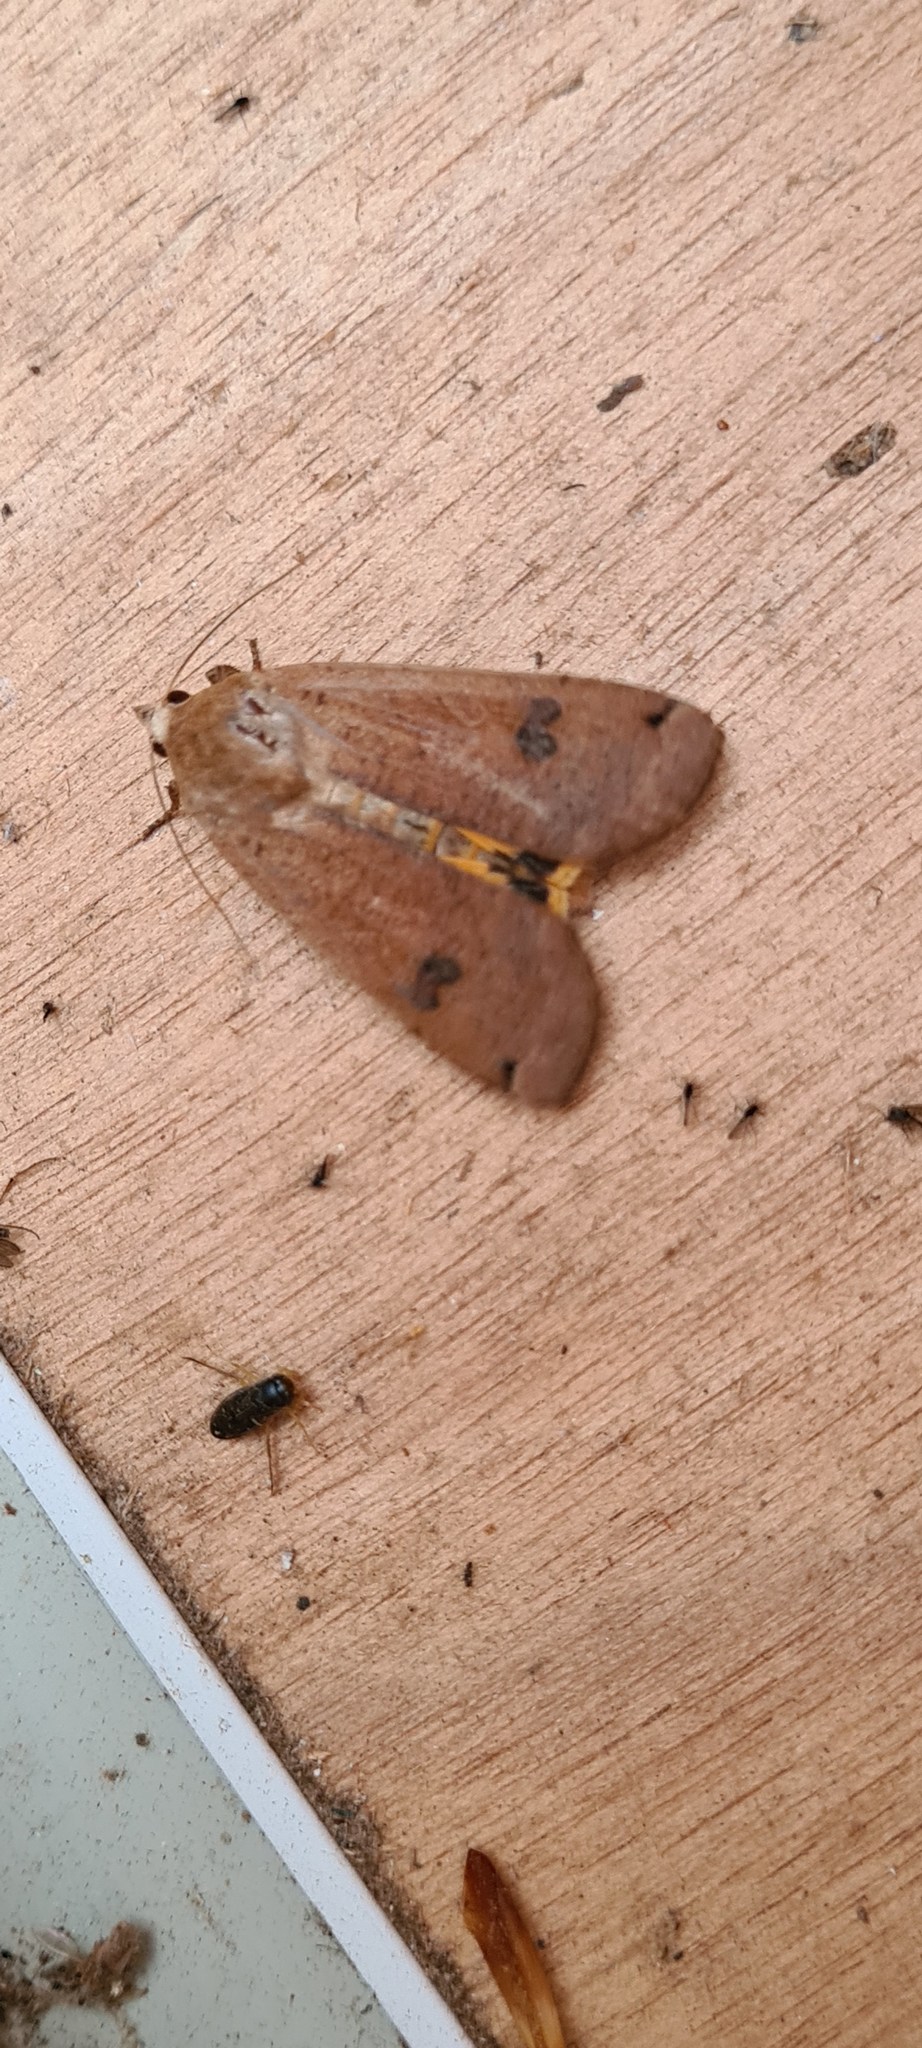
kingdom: Animalia
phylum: Arthropoda
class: Insecta
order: Lepidoptera
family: Noctuidae
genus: Noctua
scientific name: Noctua pronuba
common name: Large yellow underwing
